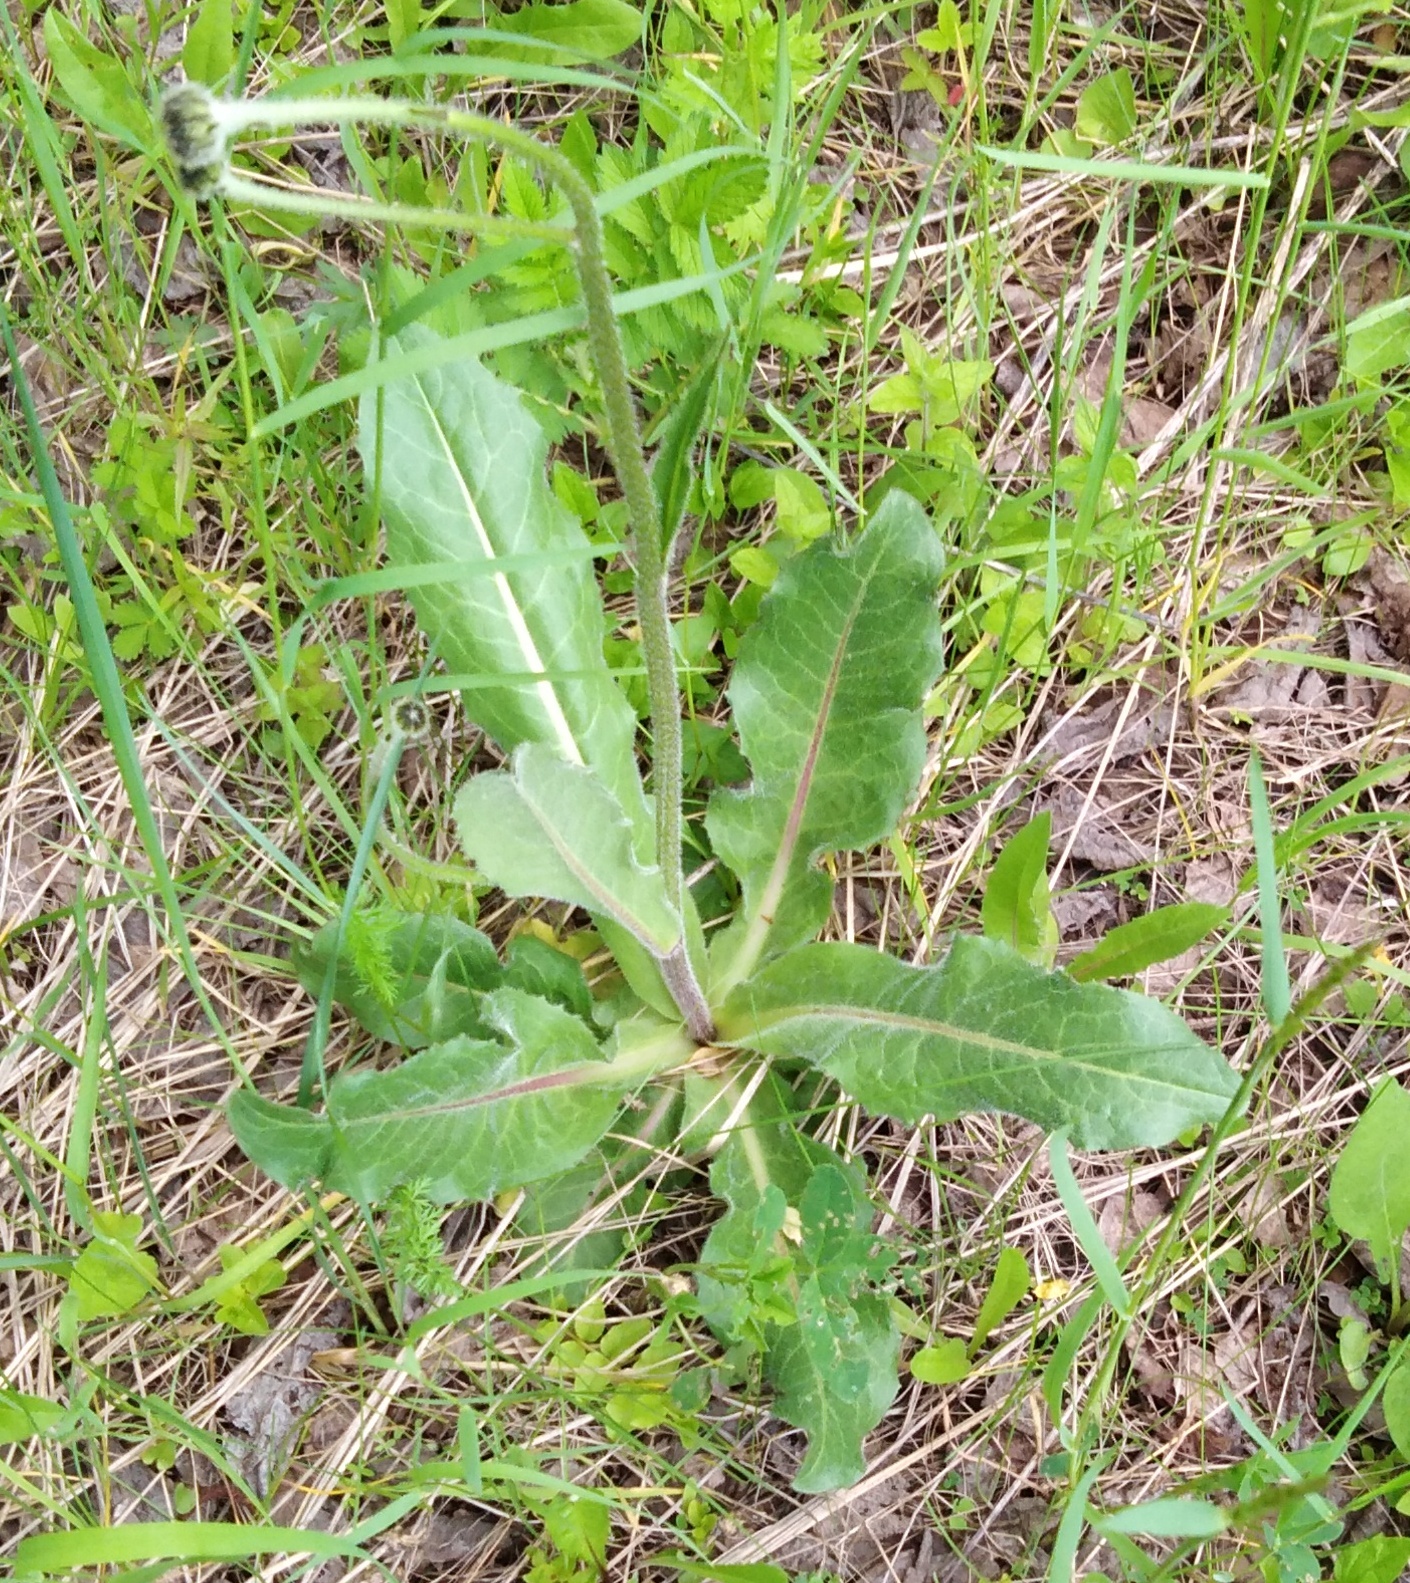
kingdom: Plantae
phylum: Tracheophyta
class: Magnoliopsida
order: Asterales
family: Asteraceae
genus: Trommsdorffia
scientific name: Trommsdorffia maculata
